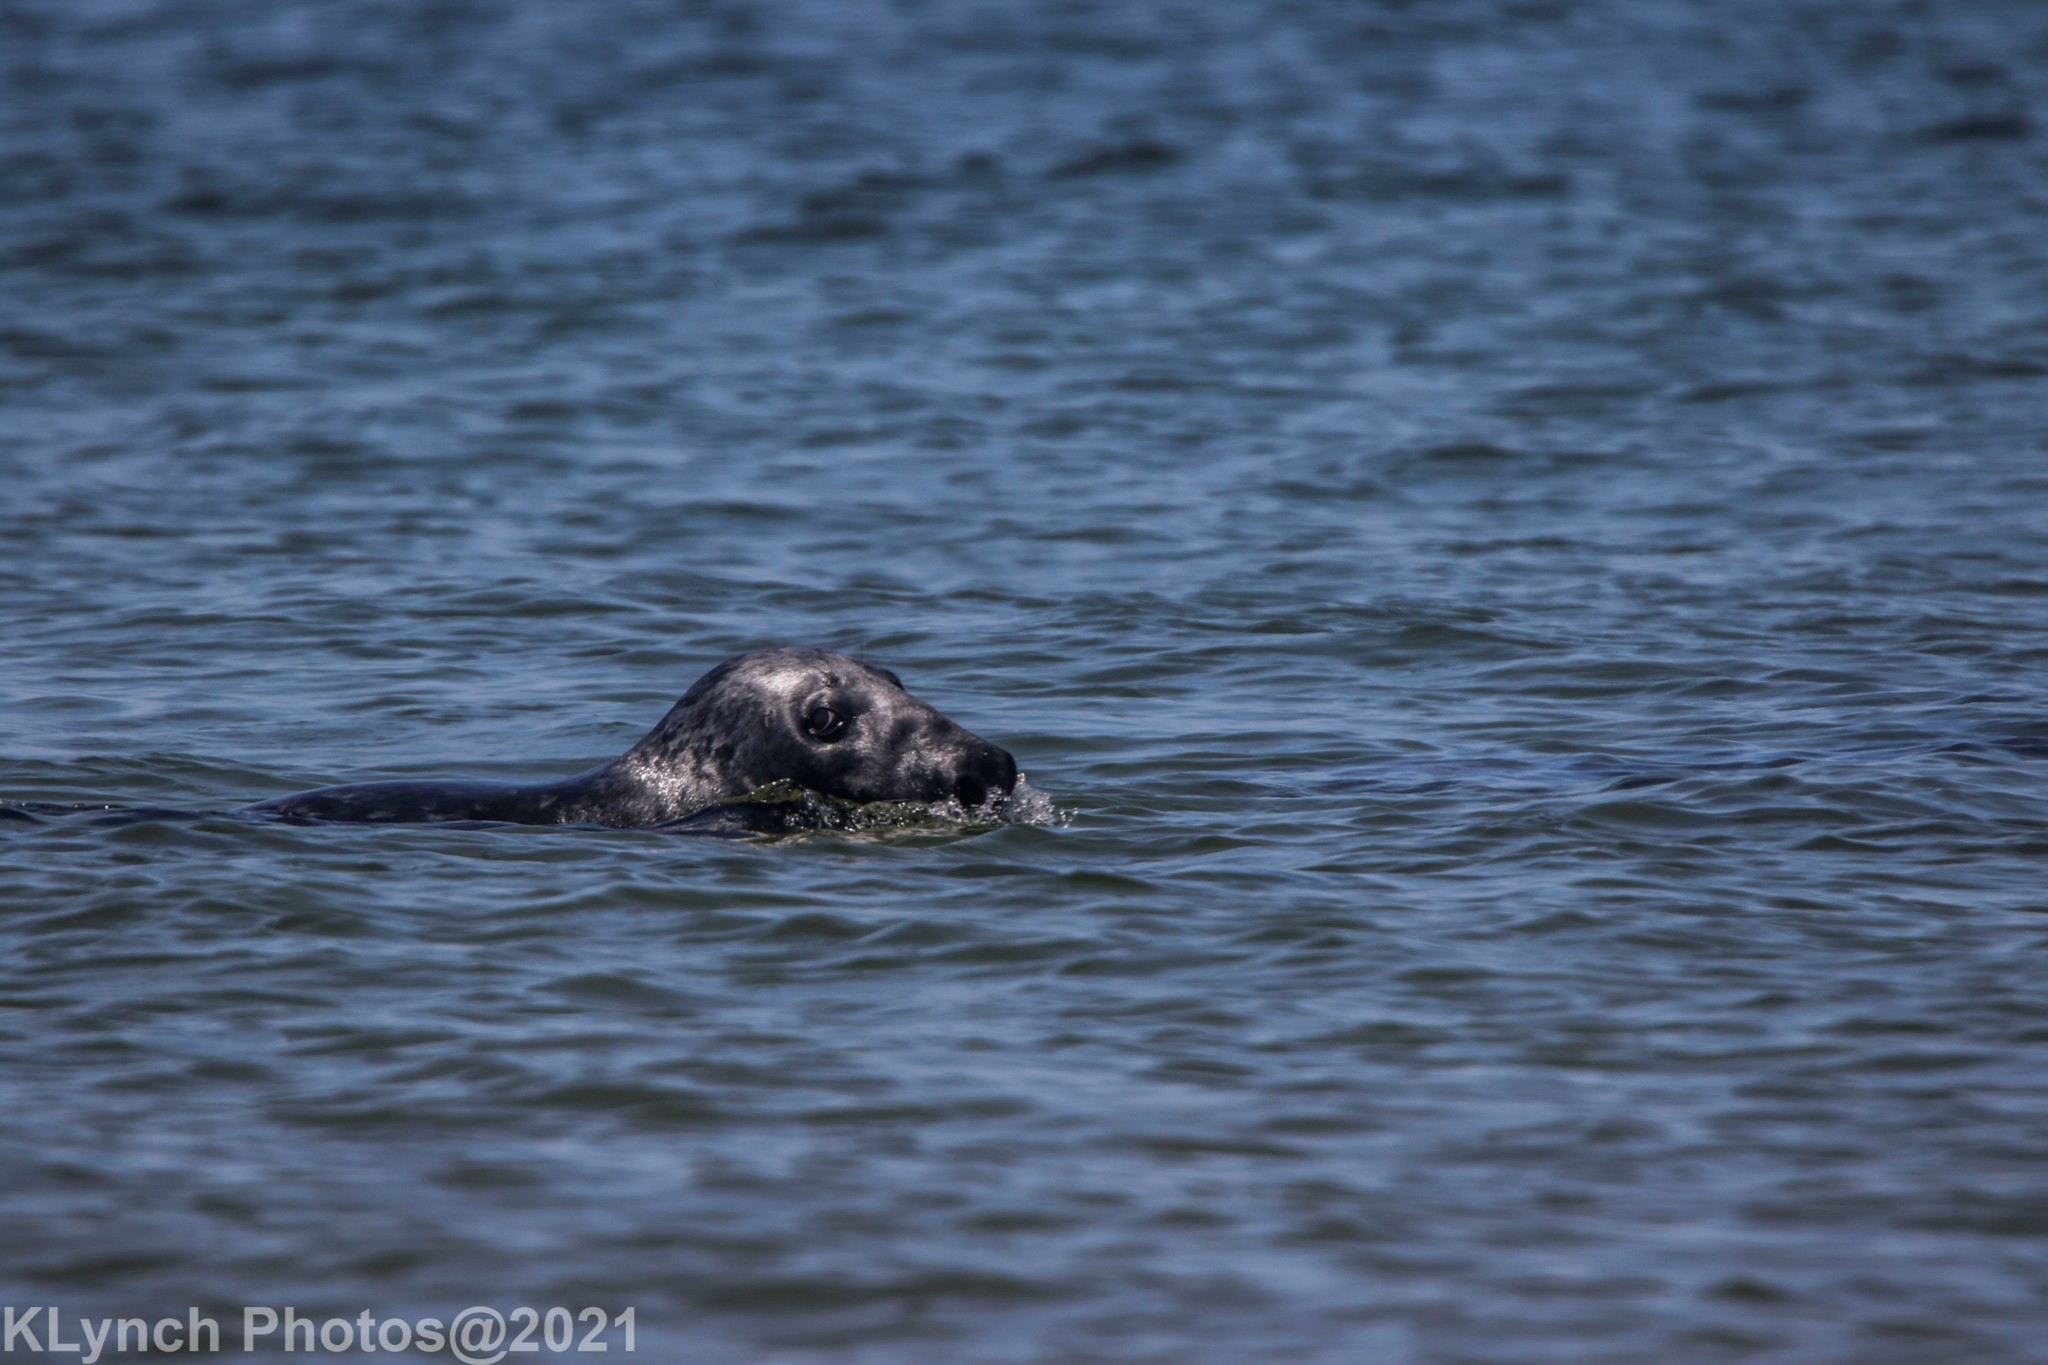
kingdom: Animalia
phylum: Chordata
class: Mammalia
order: Carnivora
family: Phocidae
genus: Halichoerus
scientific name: Halichoerus grypus
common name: Grey seal
